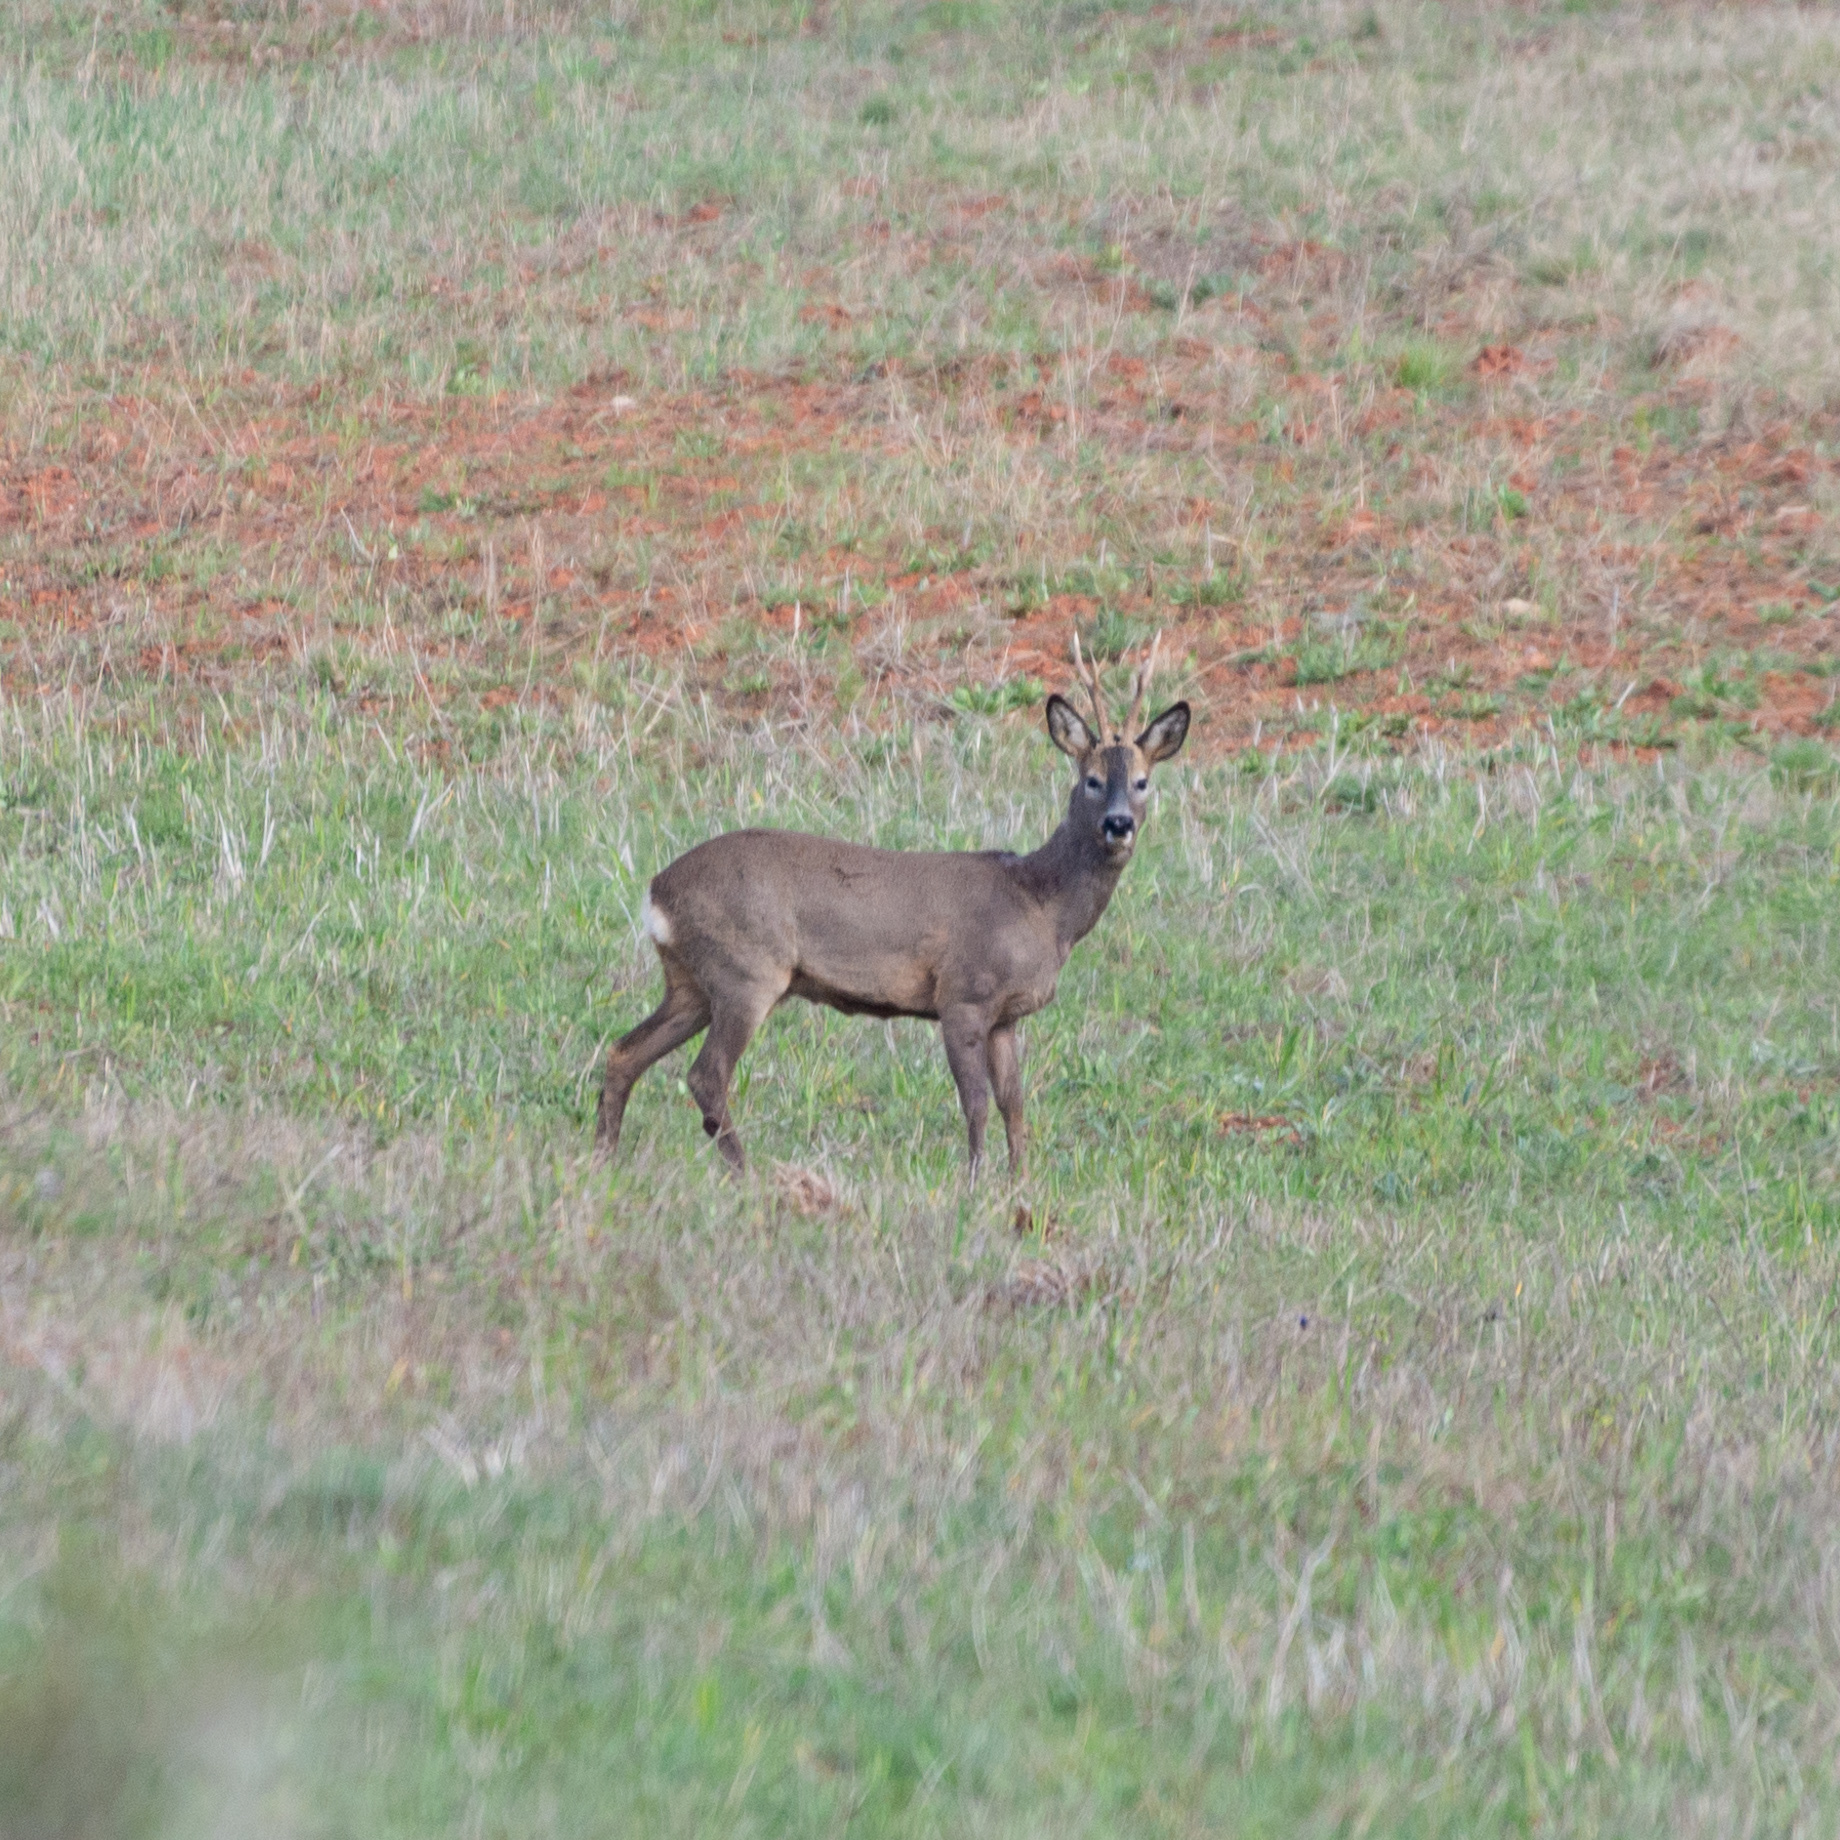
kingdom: Animalia
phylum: Chordata
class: Mammalia
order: Artiodactyla
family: Cervidae
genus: Capreolus
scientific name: Capreolus capreolus
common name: Western roe deer
